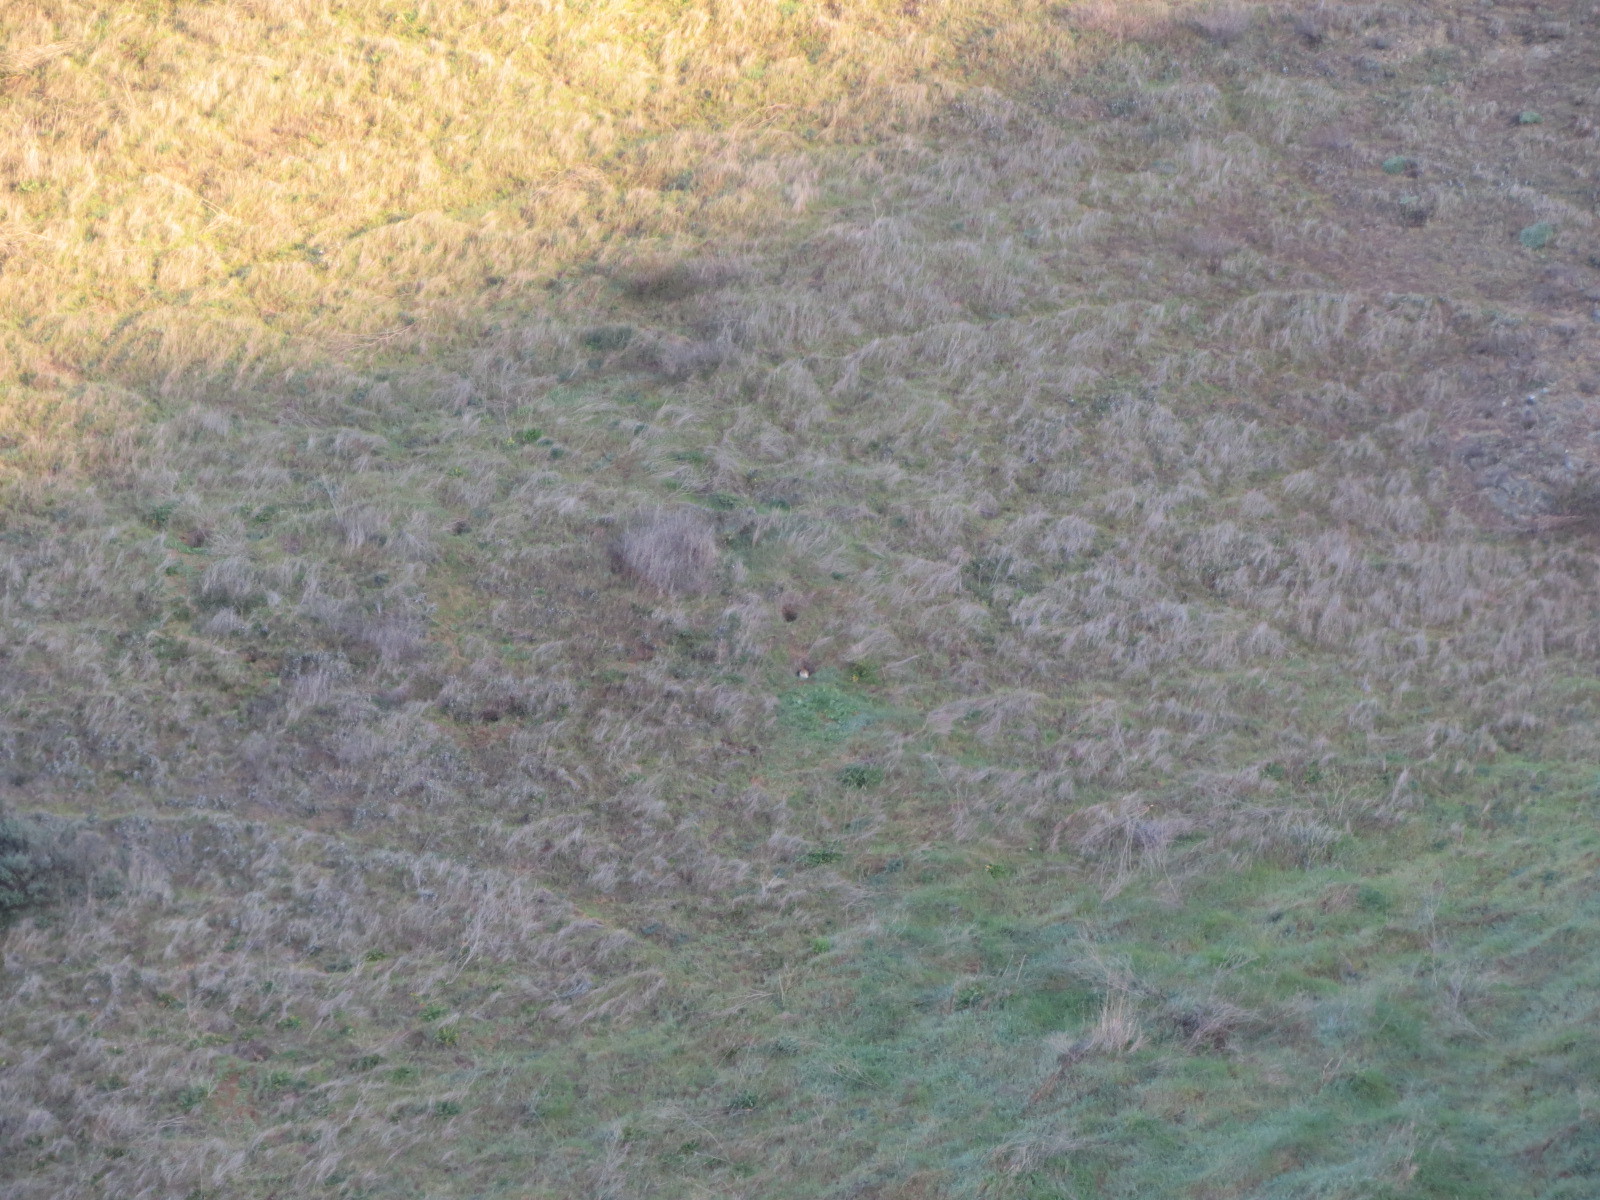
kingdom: Animalia
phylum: Chordata
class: Aves
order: Strigiformes
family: Strigidae
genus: Athene
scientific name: Athene cunicularia
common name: Burrowing owl
